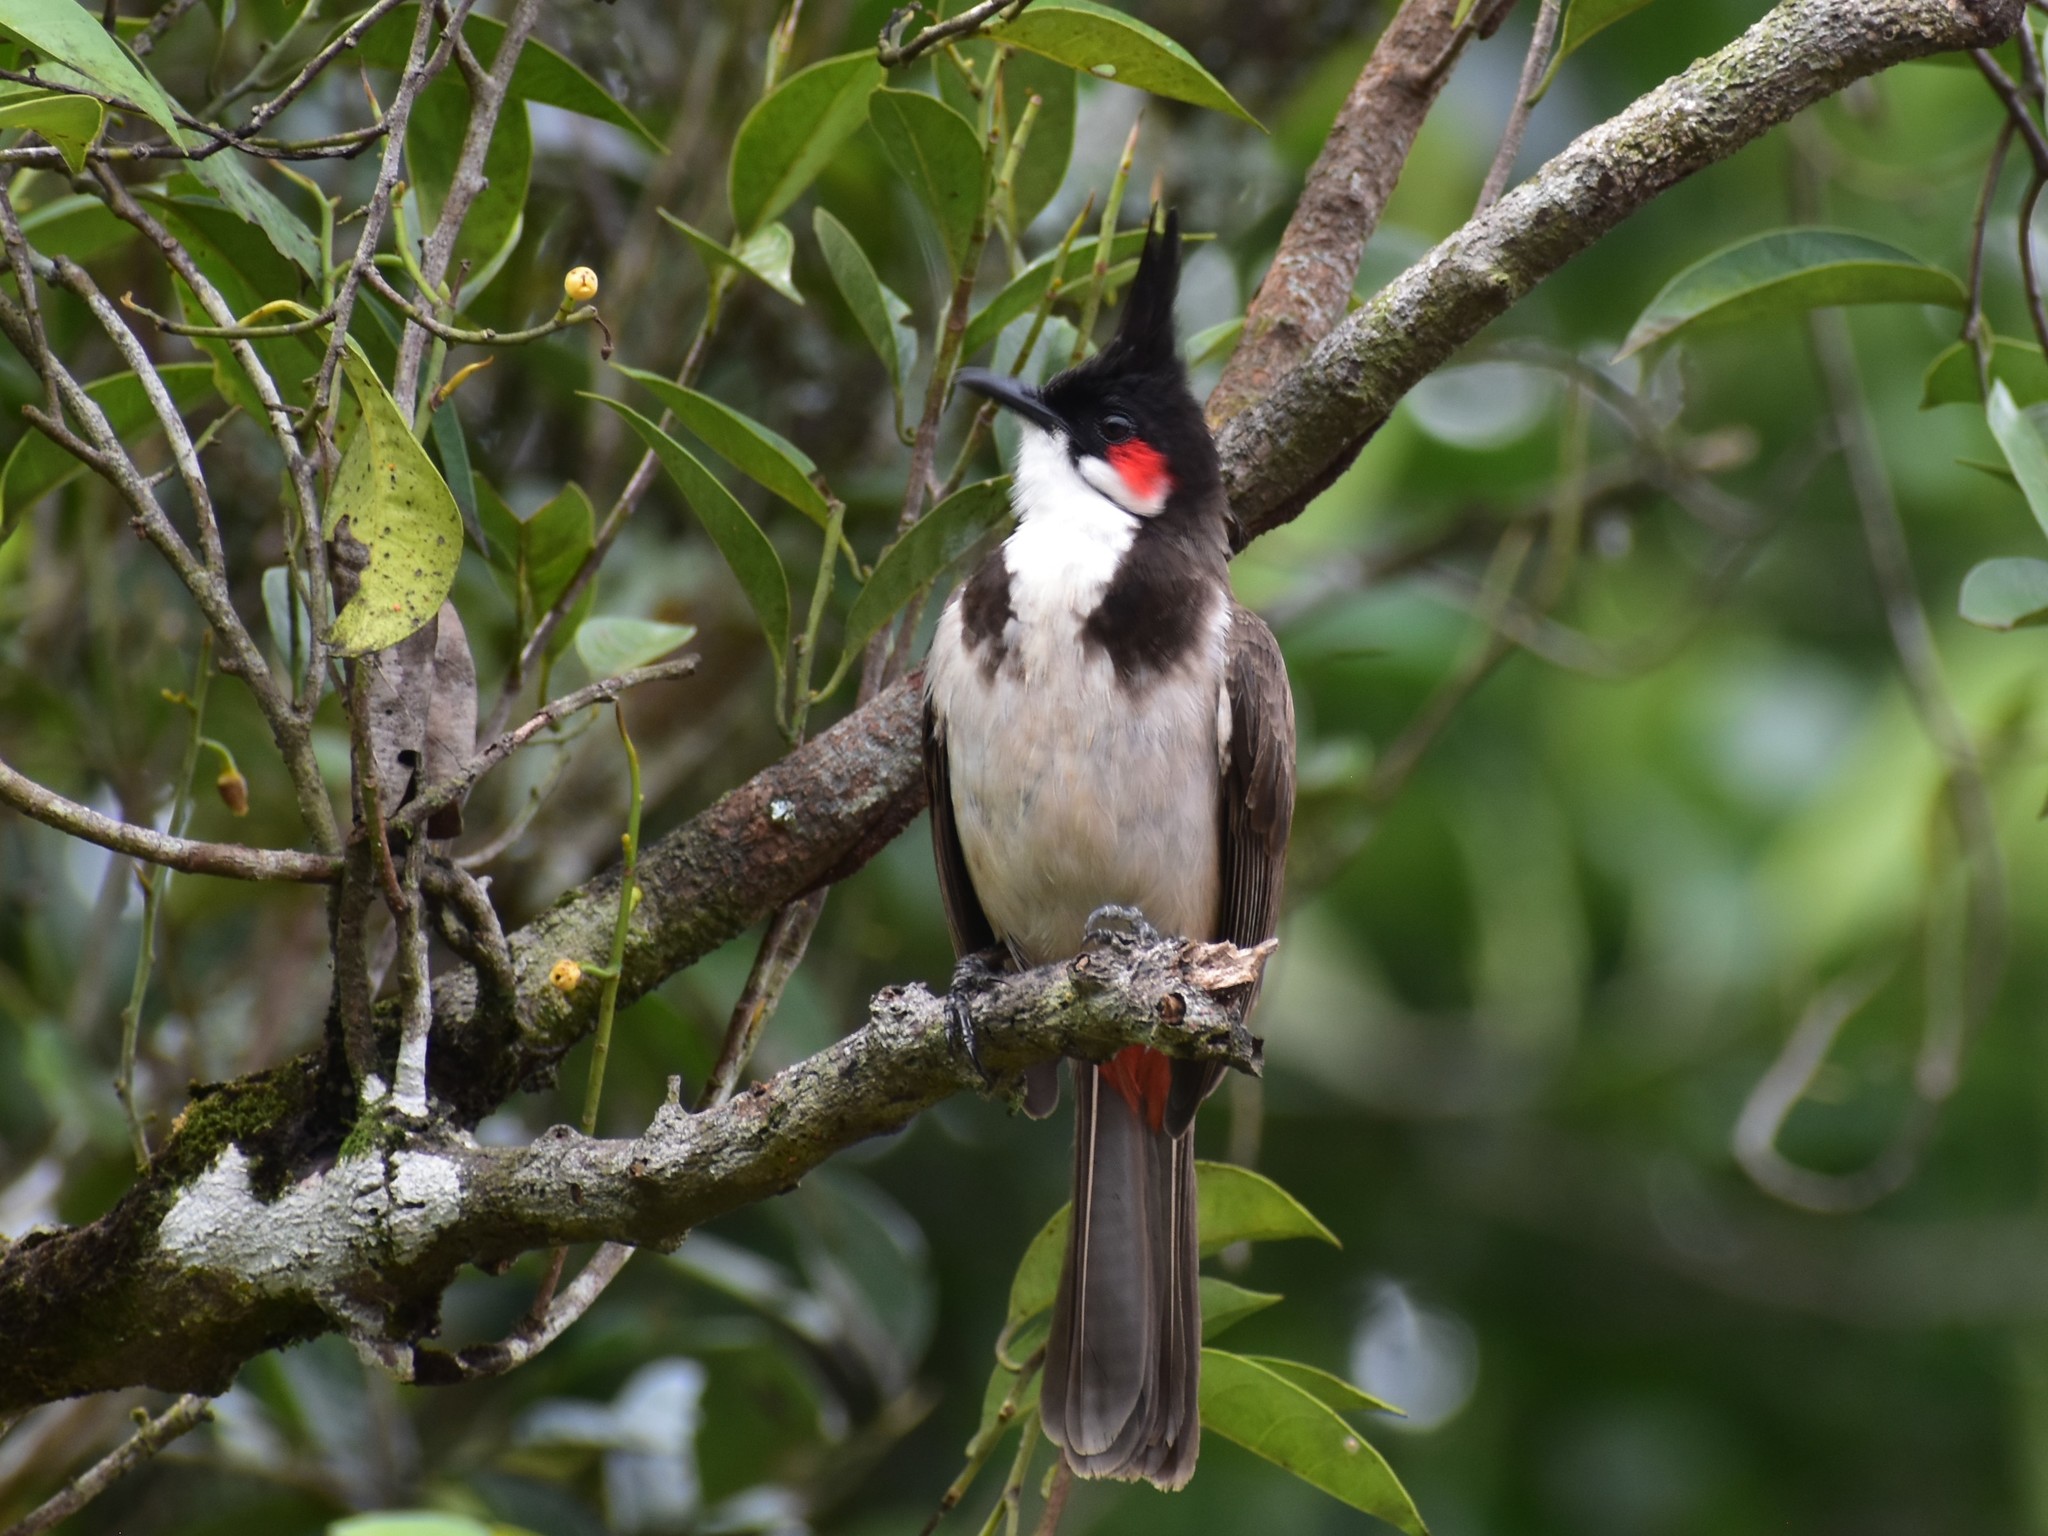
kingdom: Animalia
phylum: Chordata
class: Aves
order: Passeriformes
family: Pycnonotidae
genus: Pycnonotus
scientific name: Pycnonotus jocosus
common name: Red-whiskered bulbul
